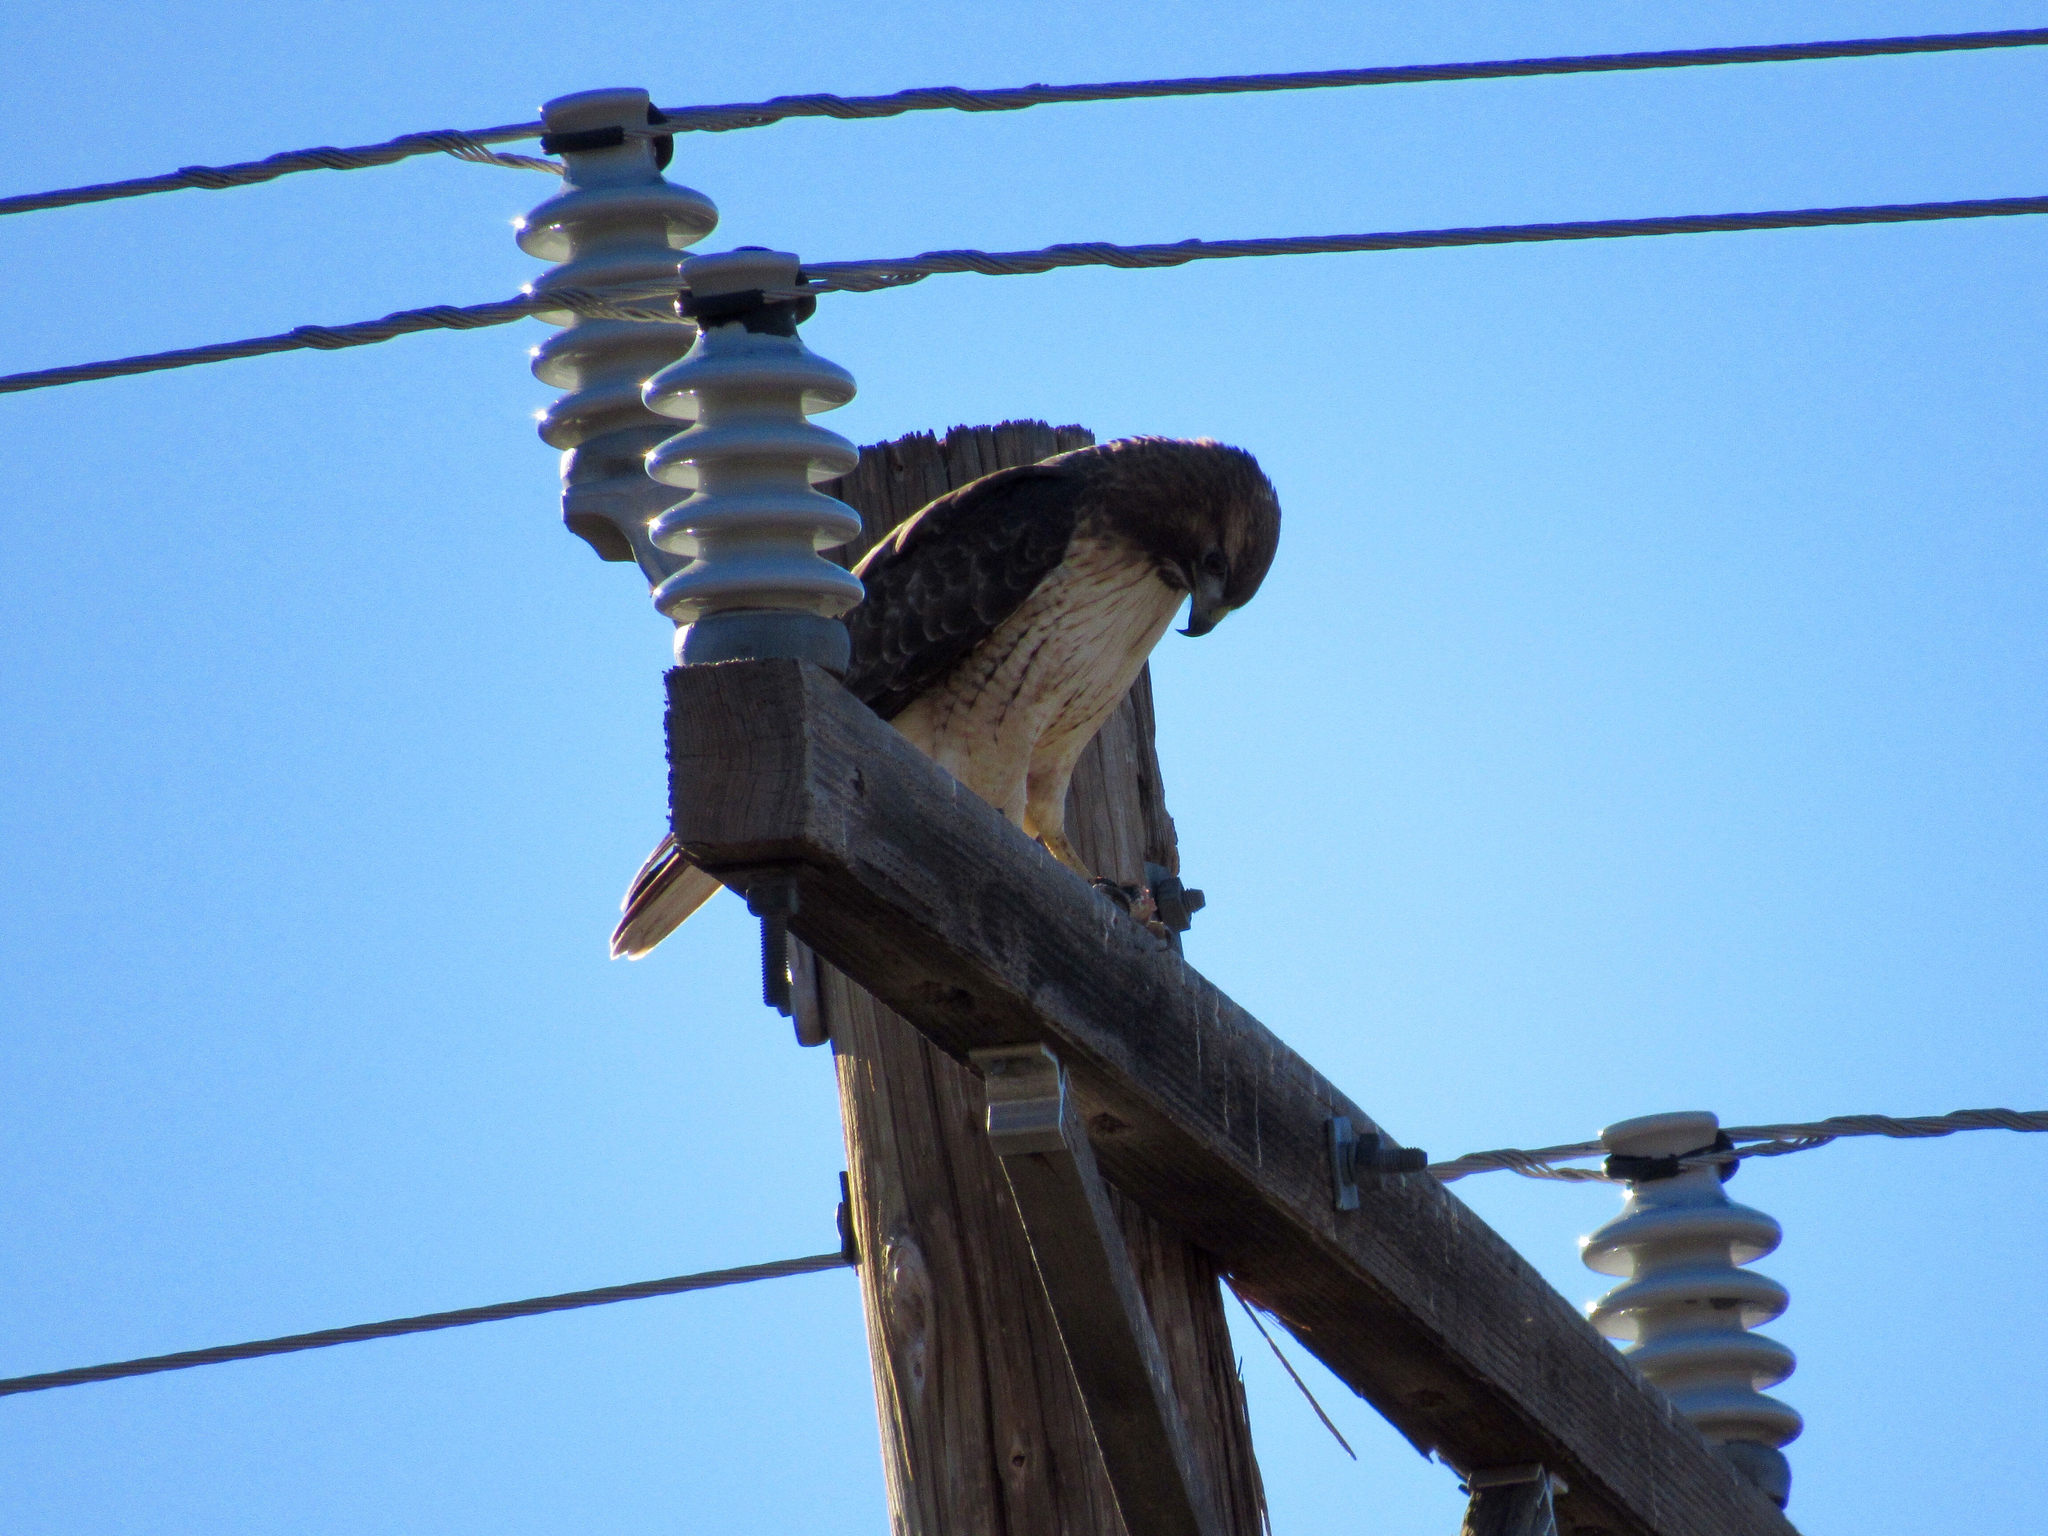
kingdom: Animalia
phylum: Chordata
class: Aves
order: Accipitriformes
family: Accipitridae
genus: Buteo
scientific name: Buteo jamaicensis
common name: Red-tailed hawk
